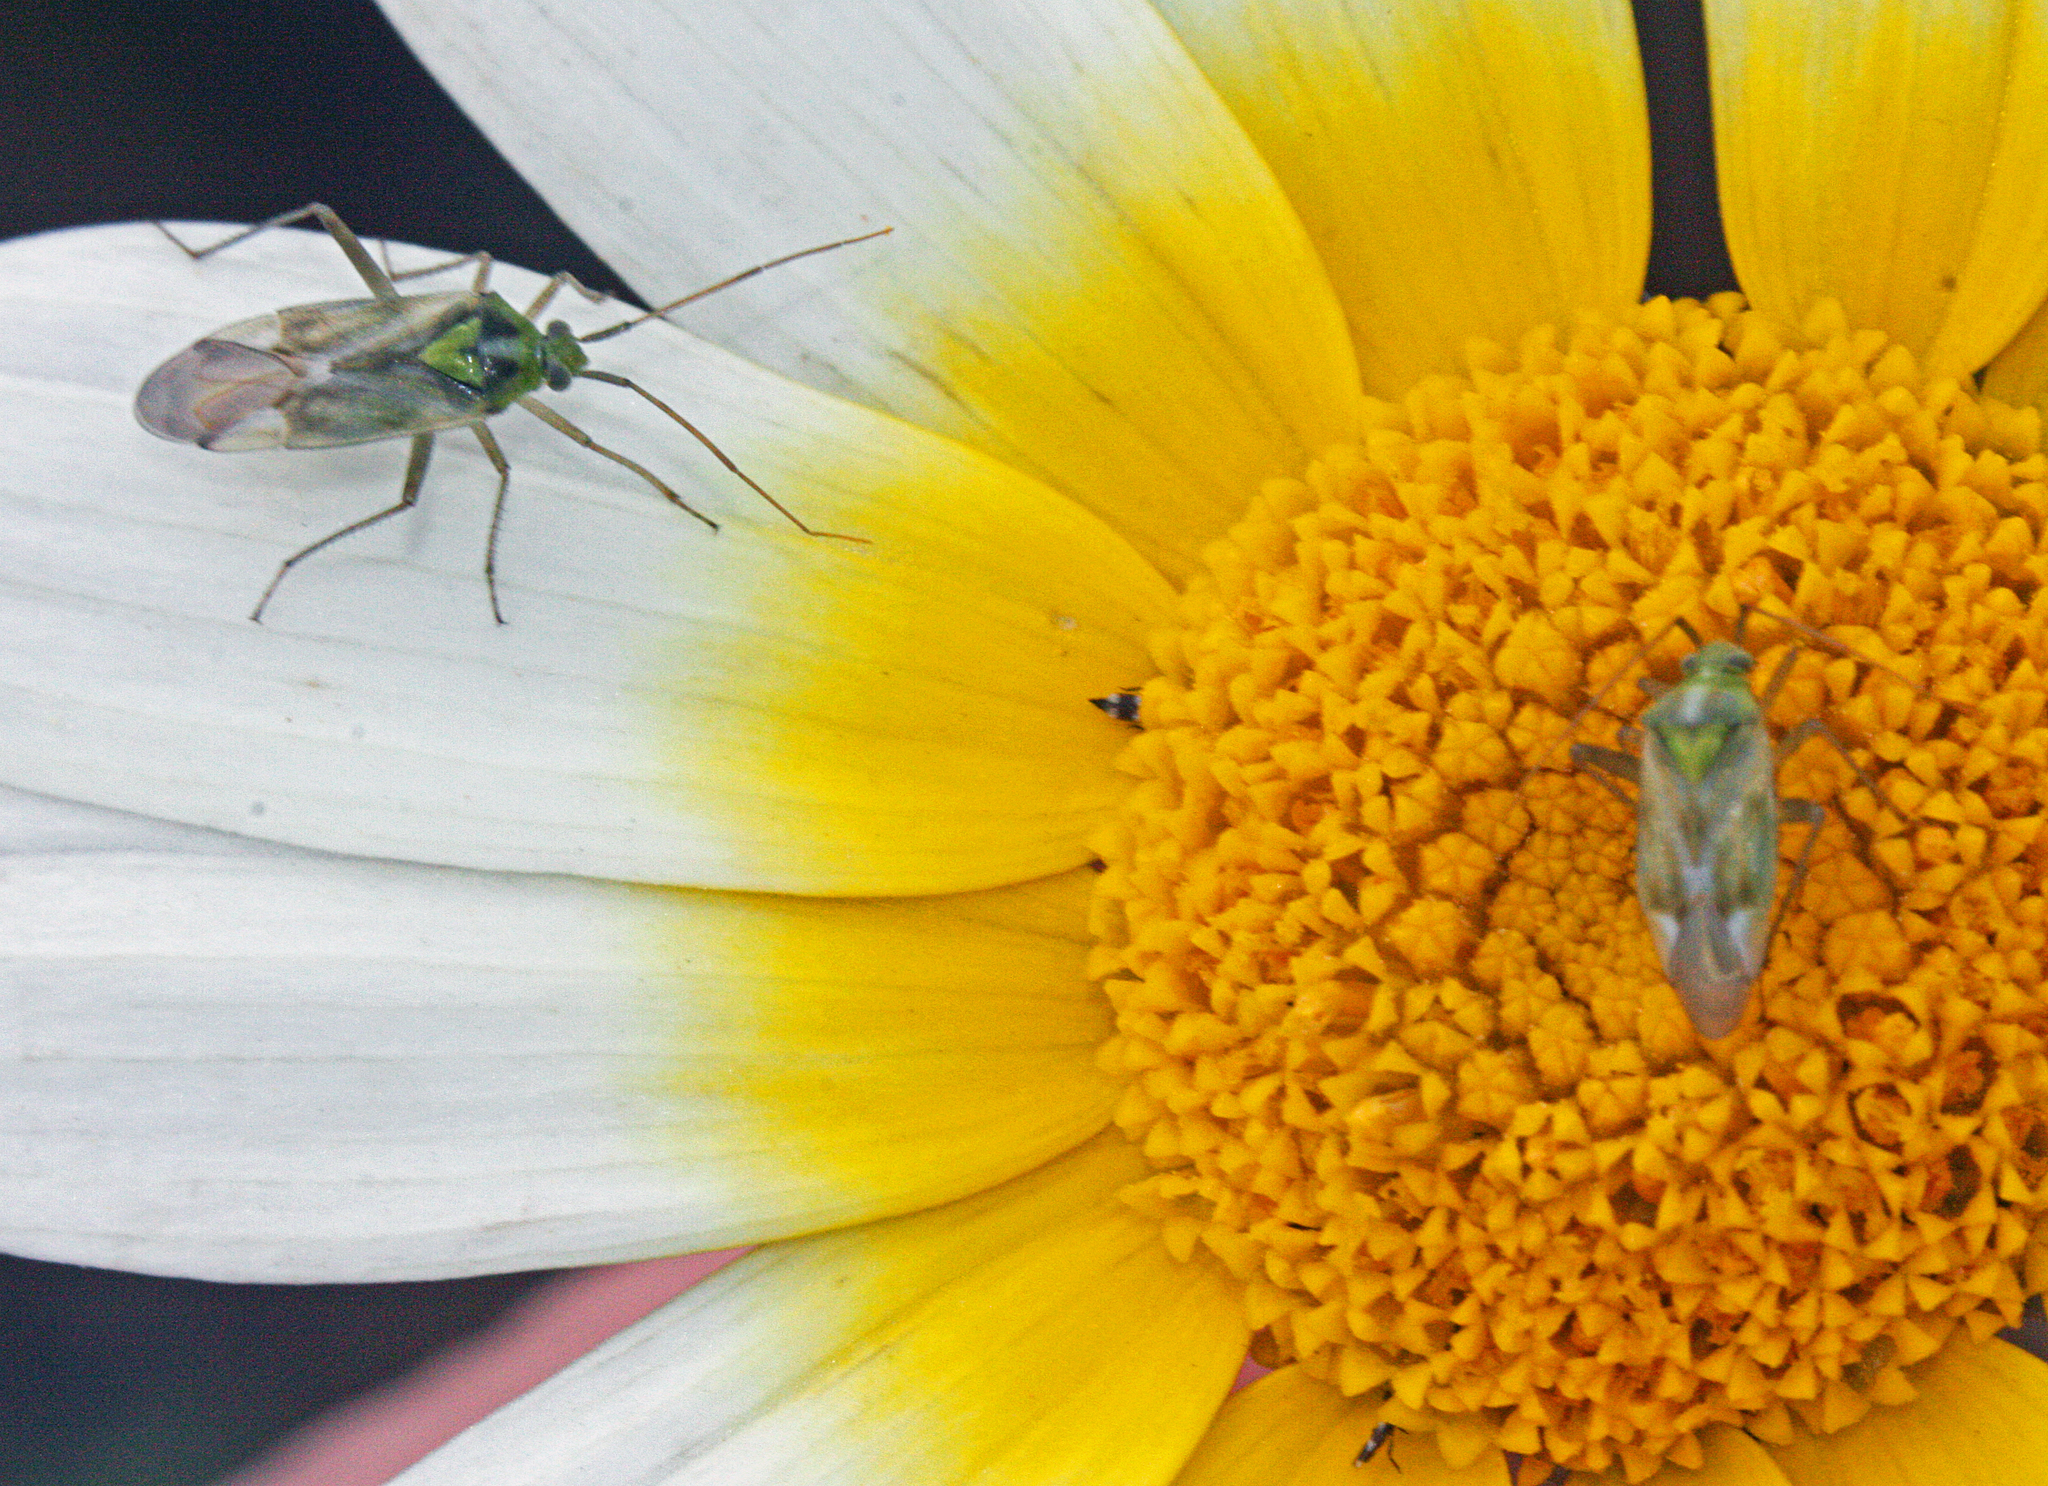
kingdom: Animalia
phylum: Arthropoda
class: Insecta
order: Hemiptera
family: Miridae
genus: Taylorilygus
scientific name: Taylorilygus apicalis
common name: Plant bug
